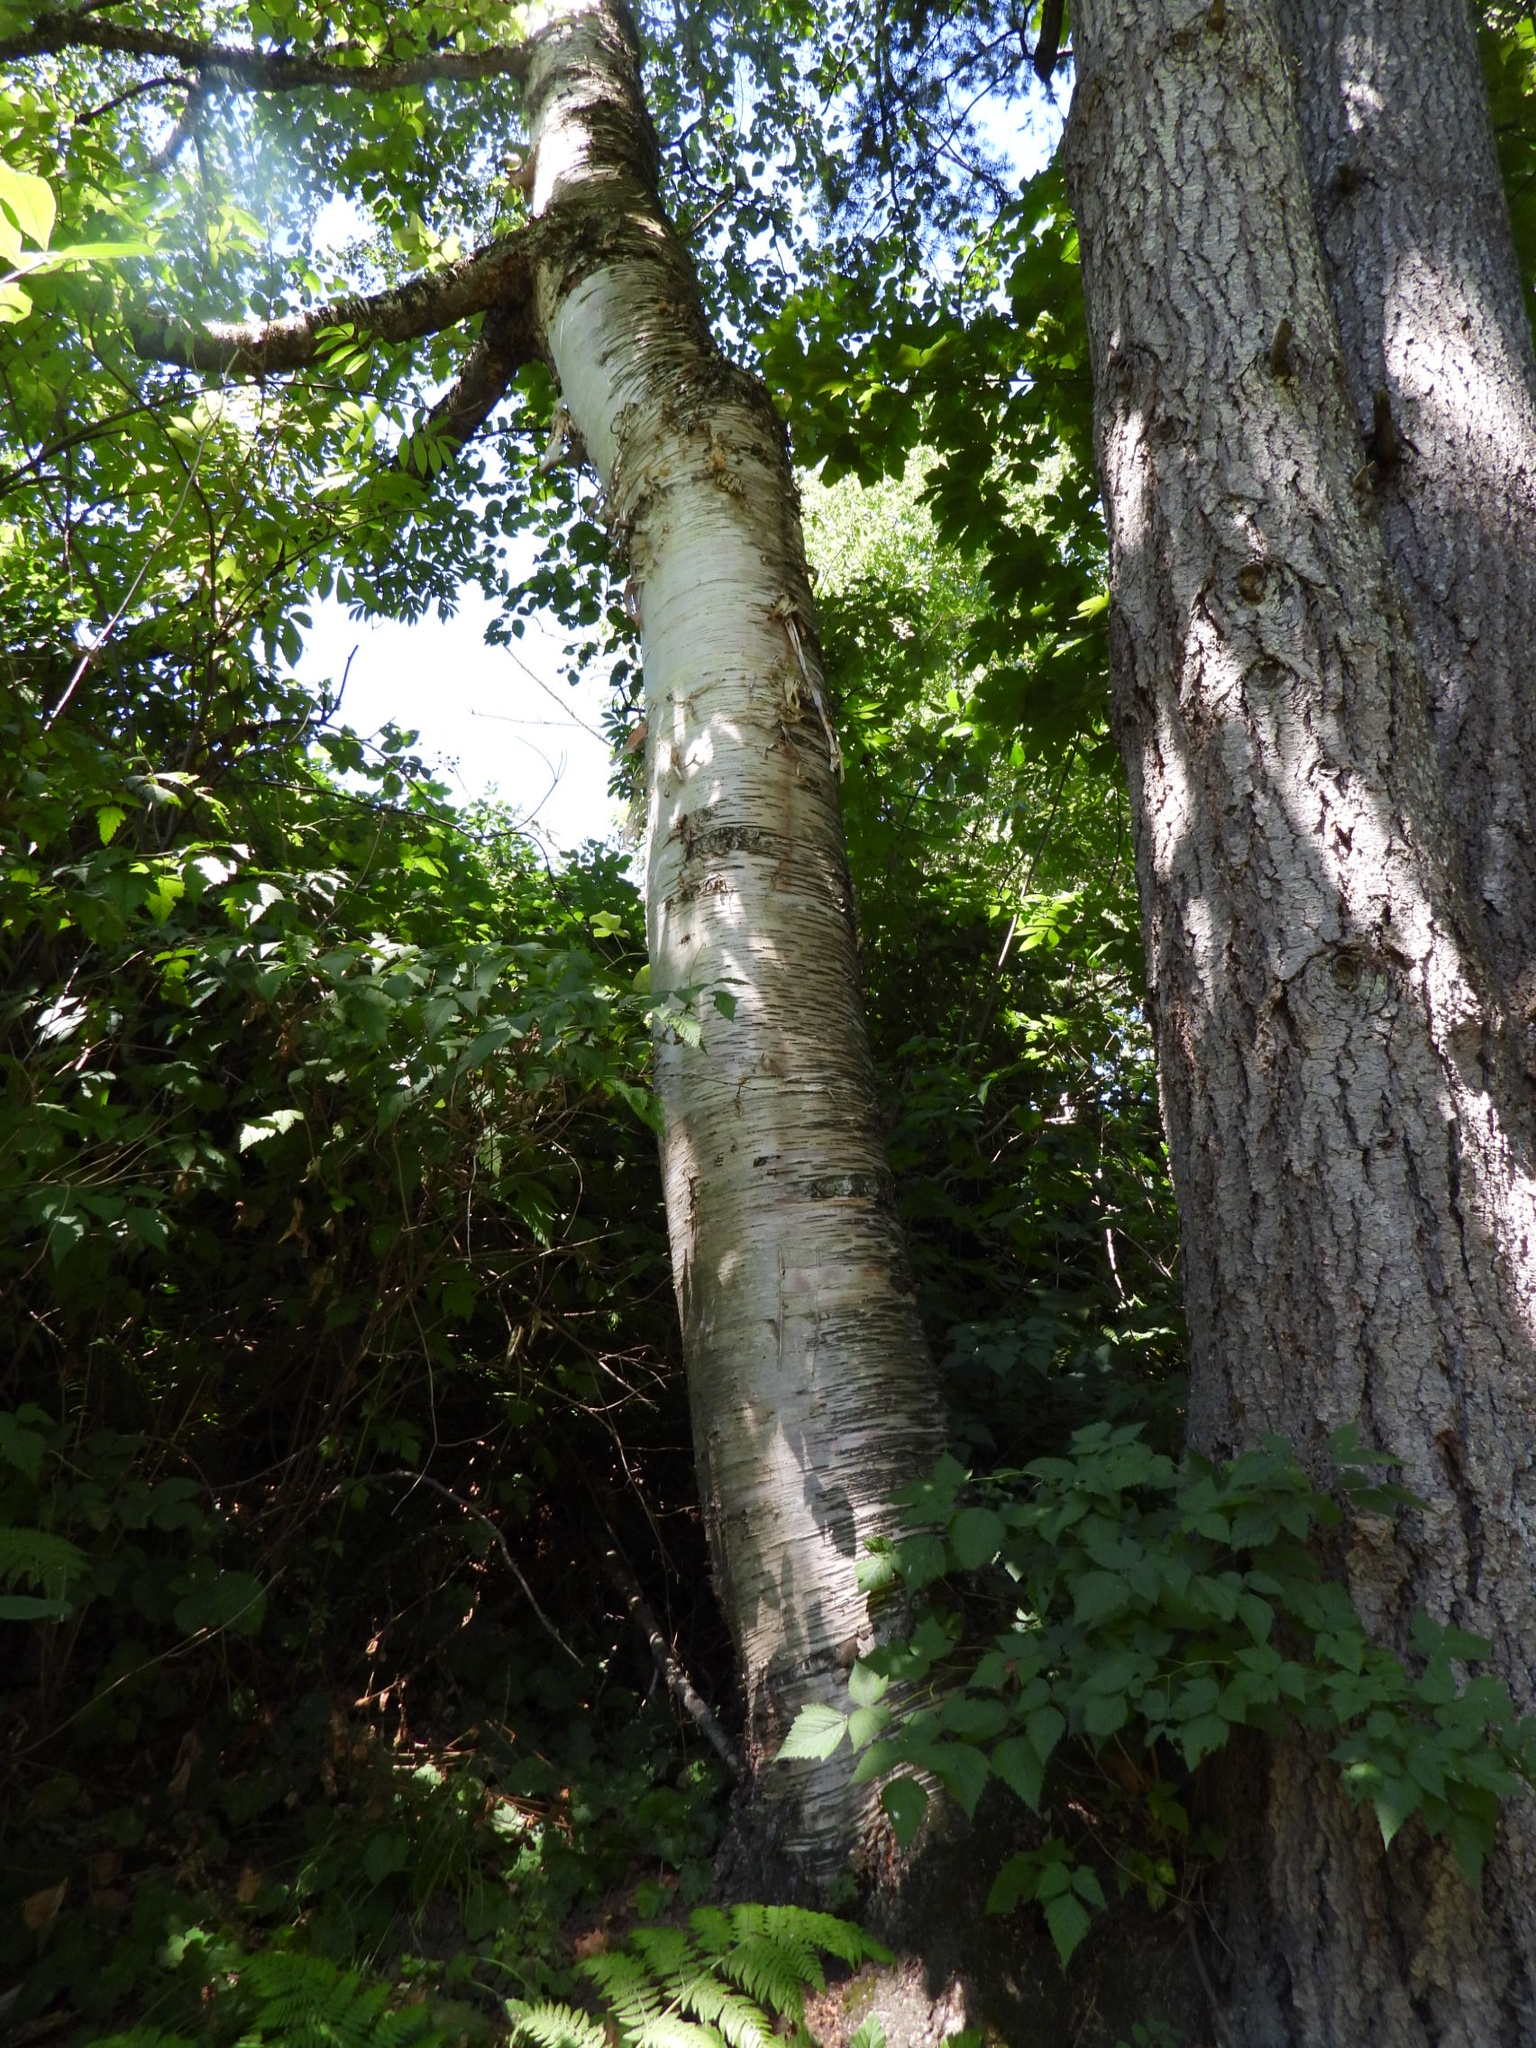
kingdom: Plantae
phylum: Tracheophyta
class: Magnoliopsida
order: Fagales
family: Betulaceae
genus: Betula
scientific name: Betula papyrifera
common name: Paper birch
